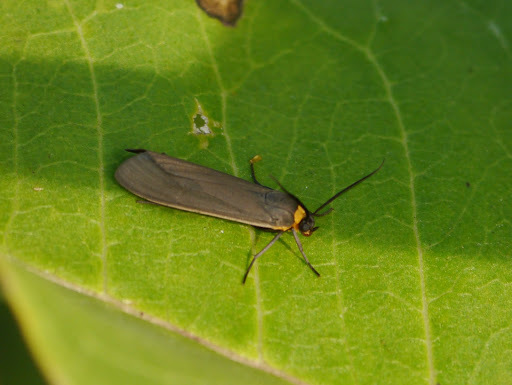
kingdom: Animalia
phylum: Arthropoda
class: Insecta
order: Lepidoptera
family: Erebidae
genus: Cisseps
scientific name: Cisseps fulvicollis
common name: Yellow-collared scape moth
